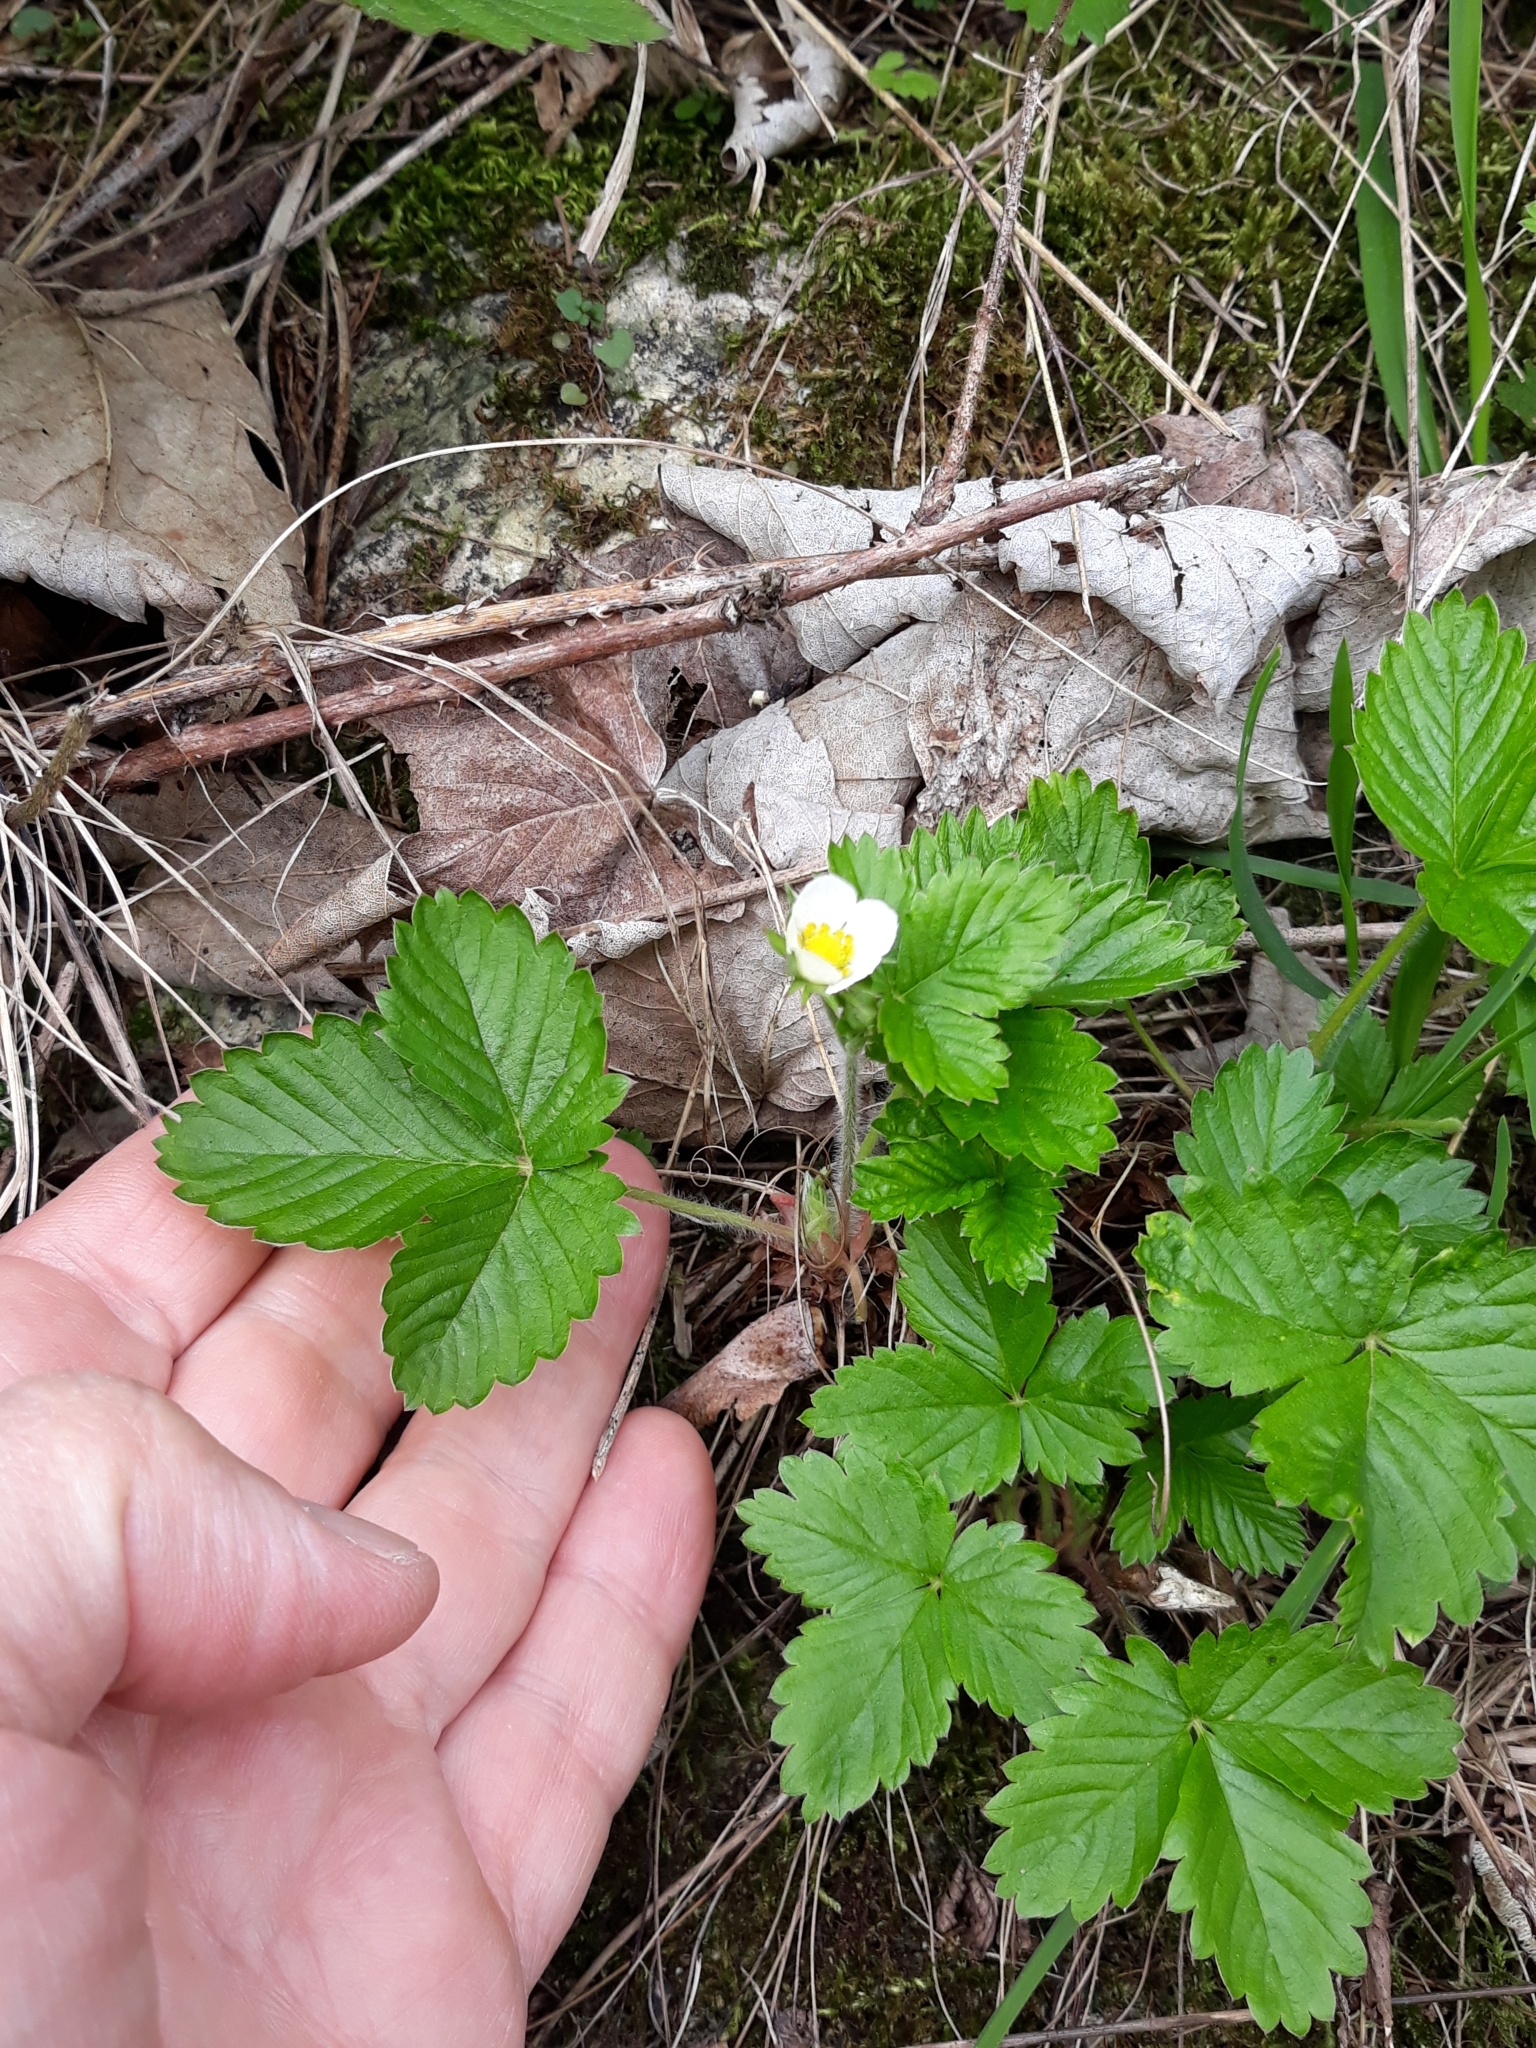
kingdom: Plantae
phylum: Tracheophyta
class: Magnoliopsida
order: Rosales
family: Rosaceae
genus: Fragaria
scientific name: Fragaria vesca
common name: Wild strawberry
